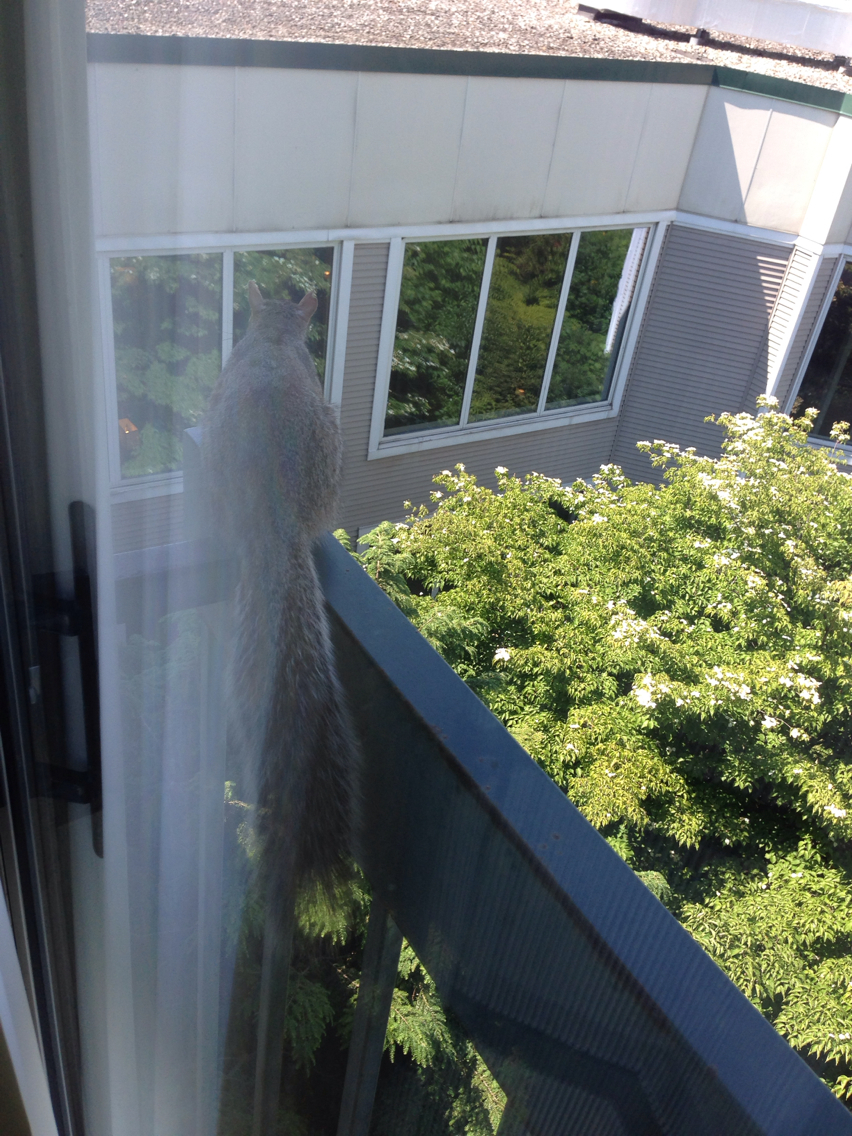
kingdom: Animalia
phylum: Chordata
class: Mammalia
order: Rodentia
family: Sciuridae
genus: Sciurus
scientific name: Sciurus carolinensis
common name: Eastern gray squirrel
